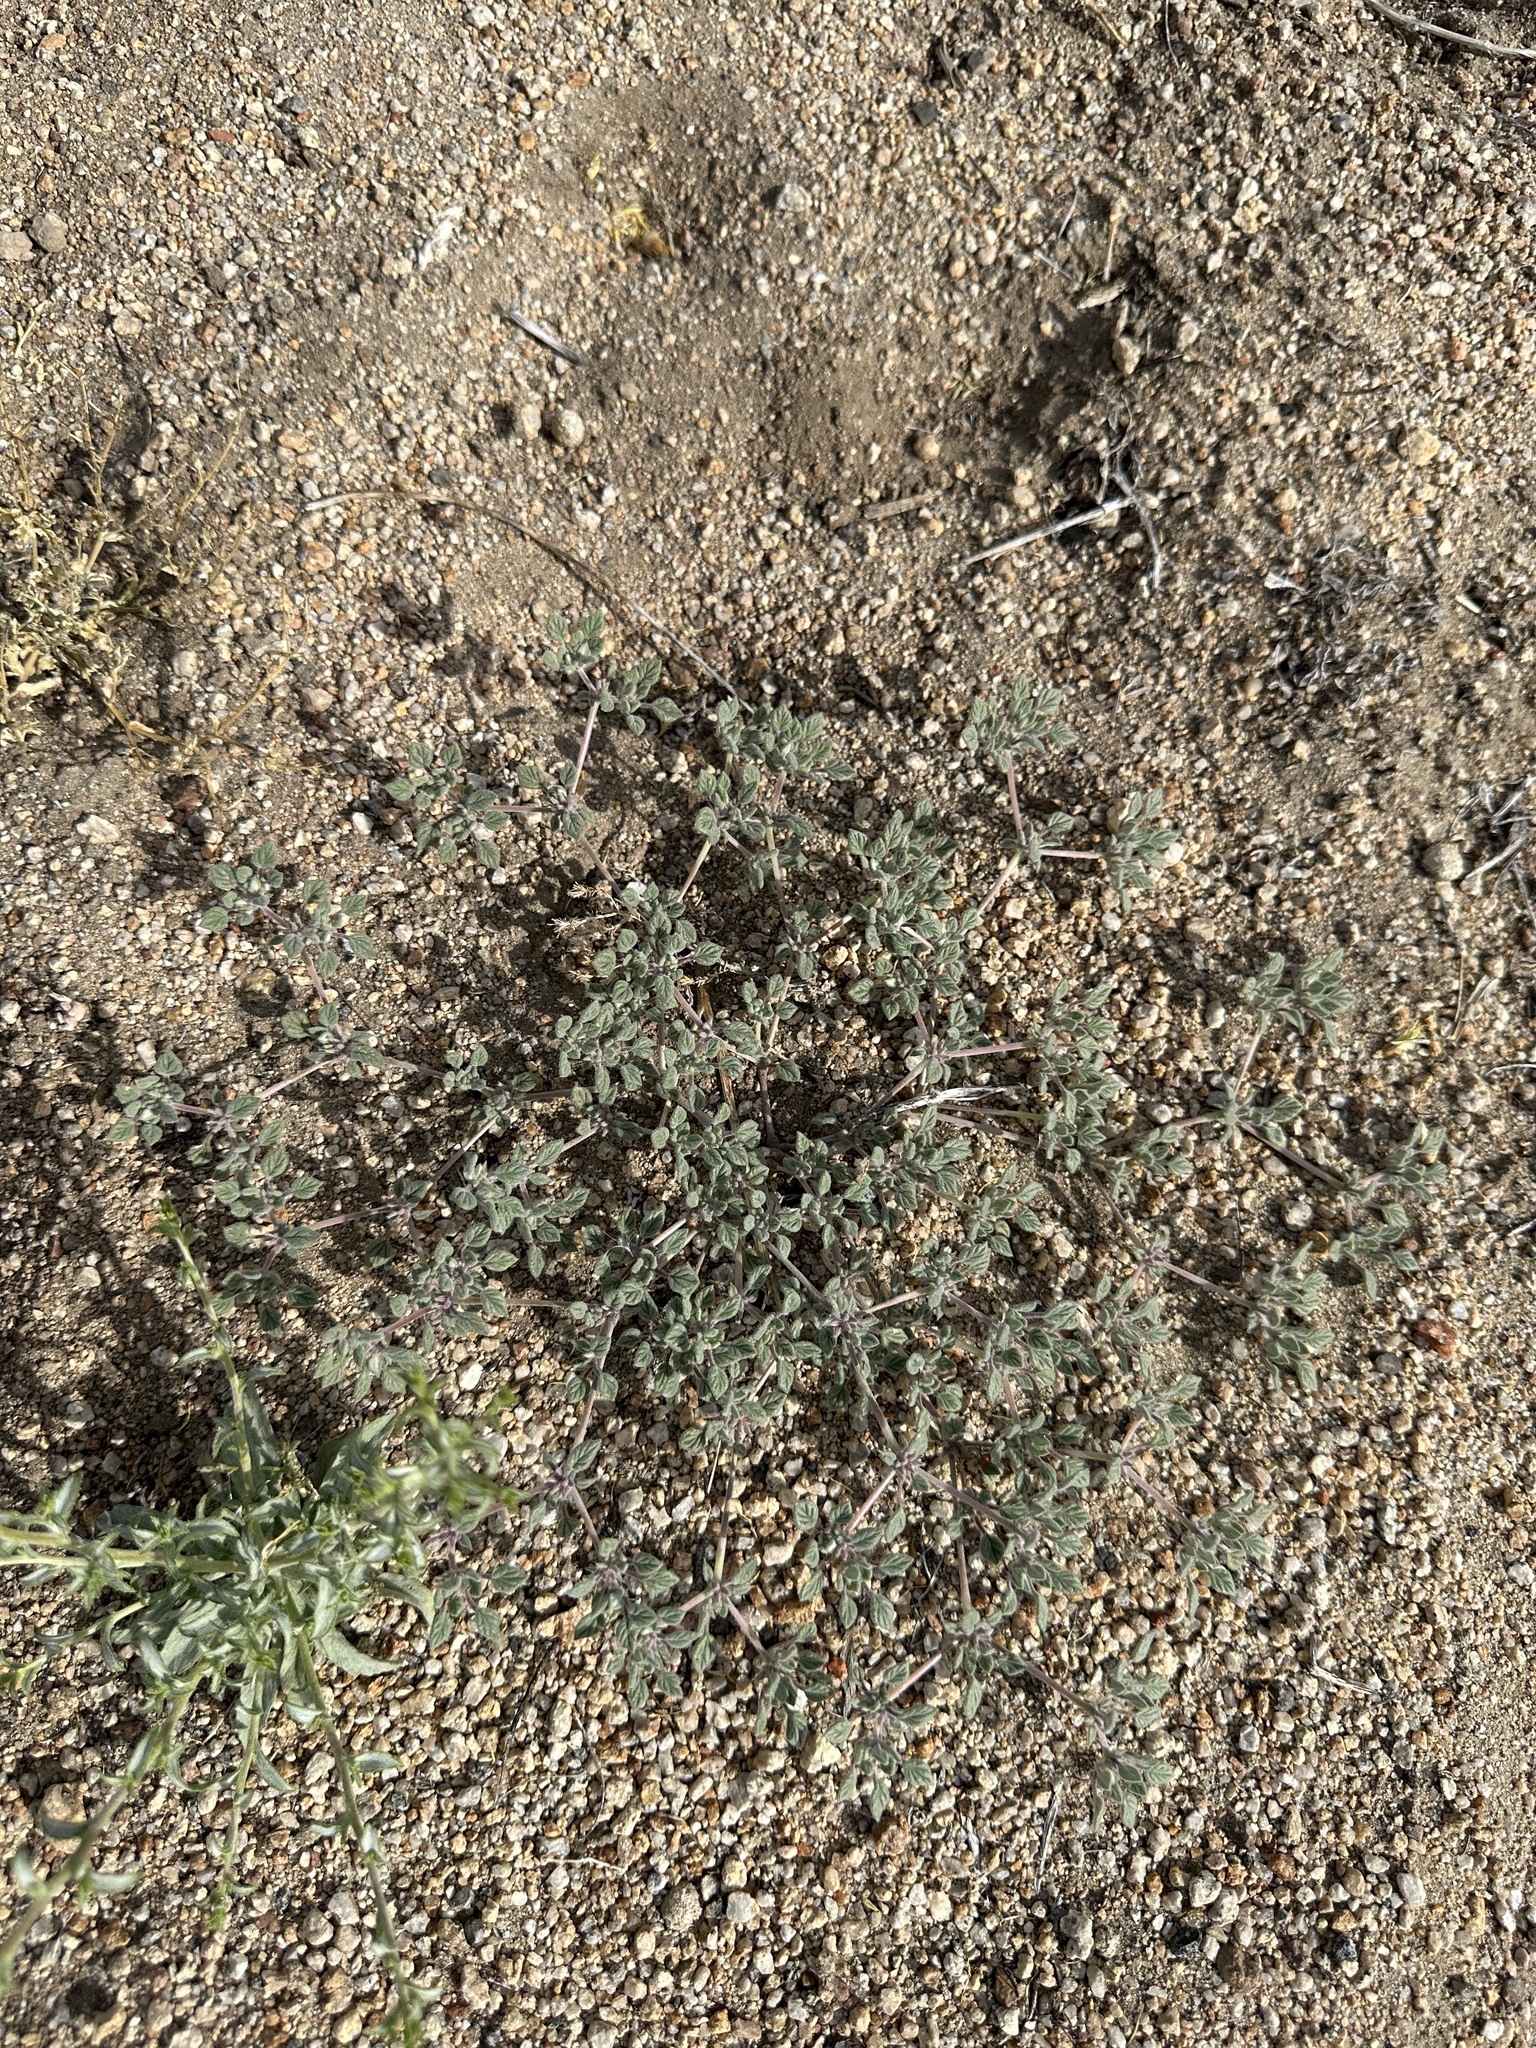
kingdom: Plantae
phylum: Tracheophyta
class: Magnoliopsida
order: Boraginales
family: Ehretiaceae
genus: Tiquilia
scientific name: Tiquilia nuttallii
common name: Rosette tiquilia
